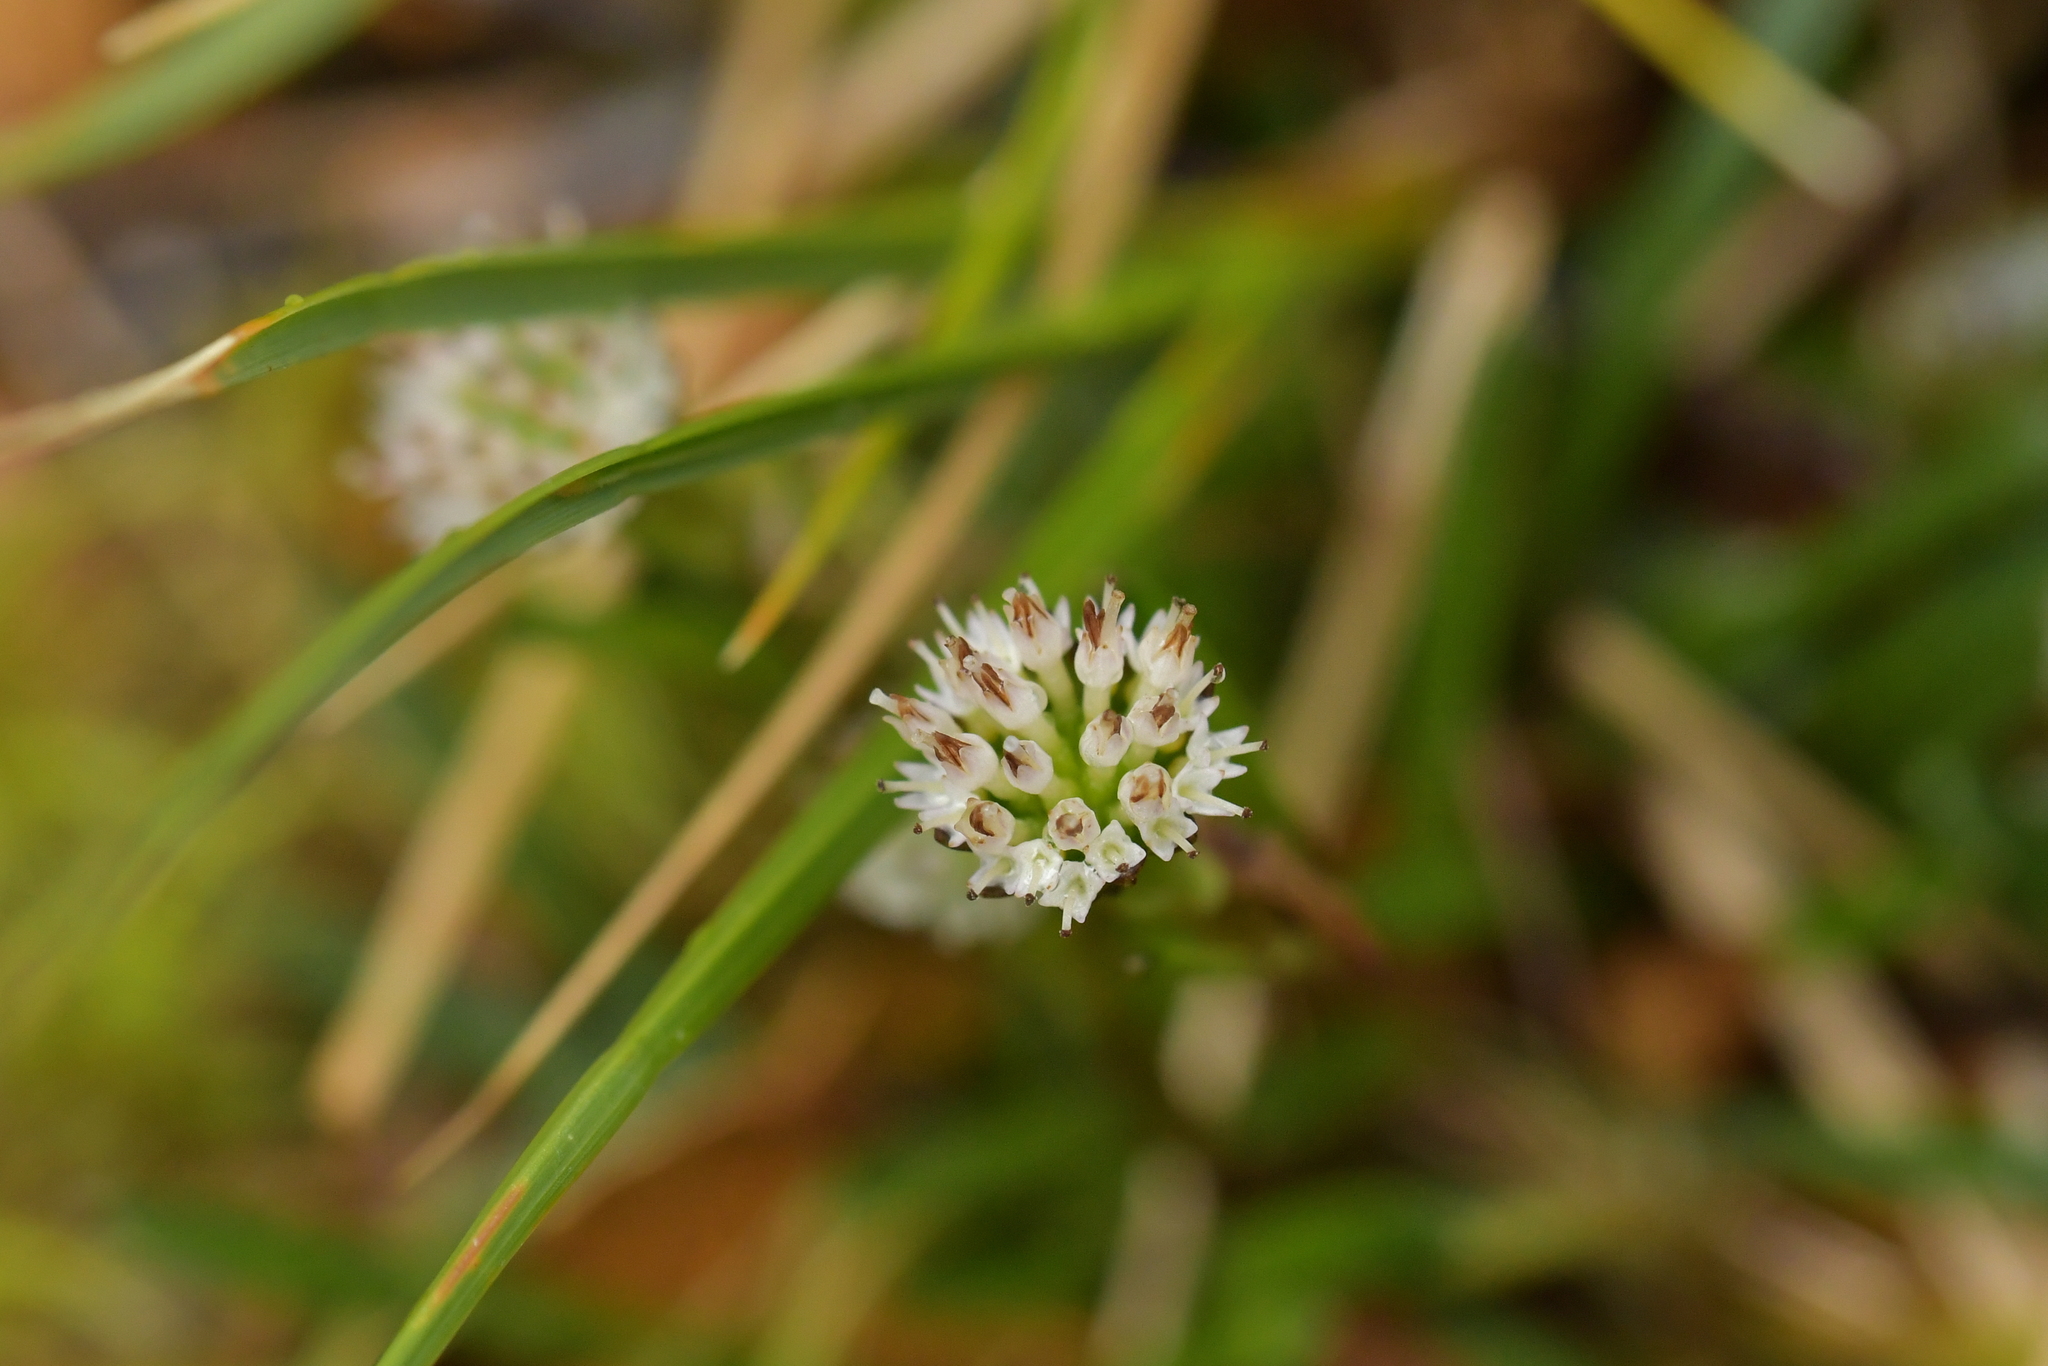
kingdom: Plantae
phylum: Tracheophyta
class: Magnoliopsida
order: Asterales
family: Asteraceae
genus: Abrotanella
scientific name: Abrotanella linearis
